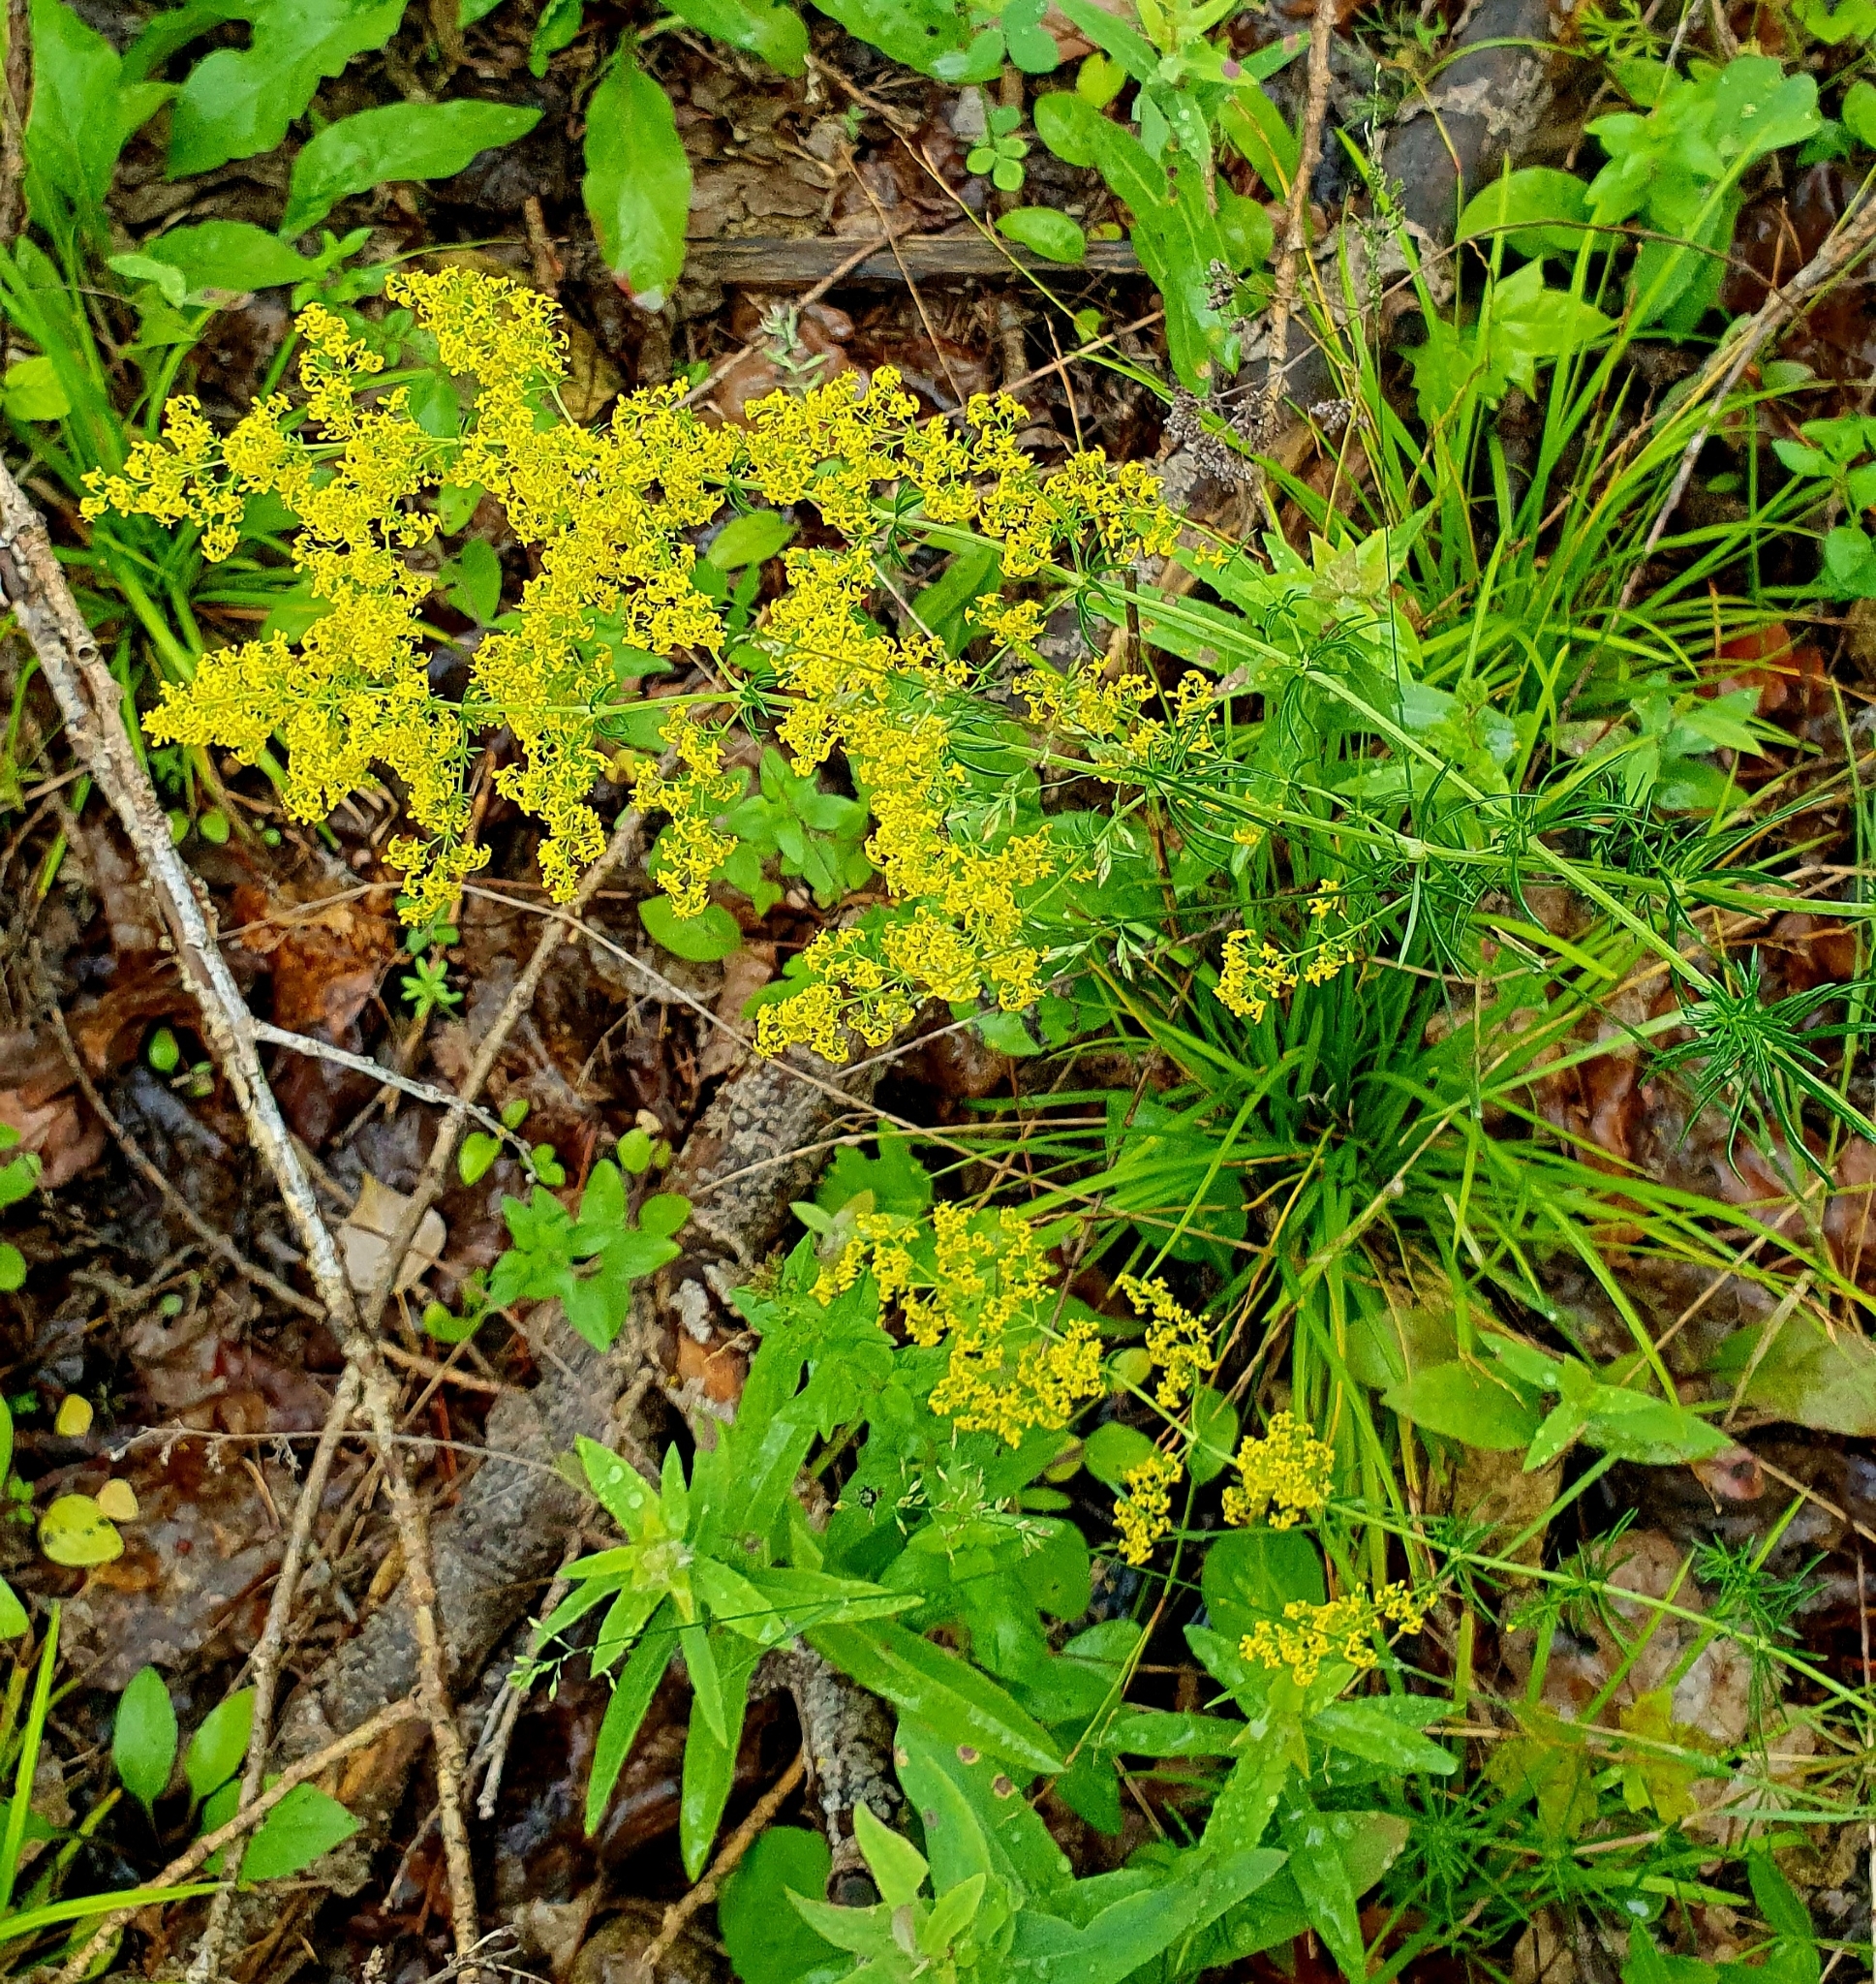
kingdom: Plantae
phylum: Tracheophyta
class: Magnoliopsida
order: Gentianales
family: Rubiaceae
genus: Galium
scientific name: Galium verum
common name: Lady's bedstraw
